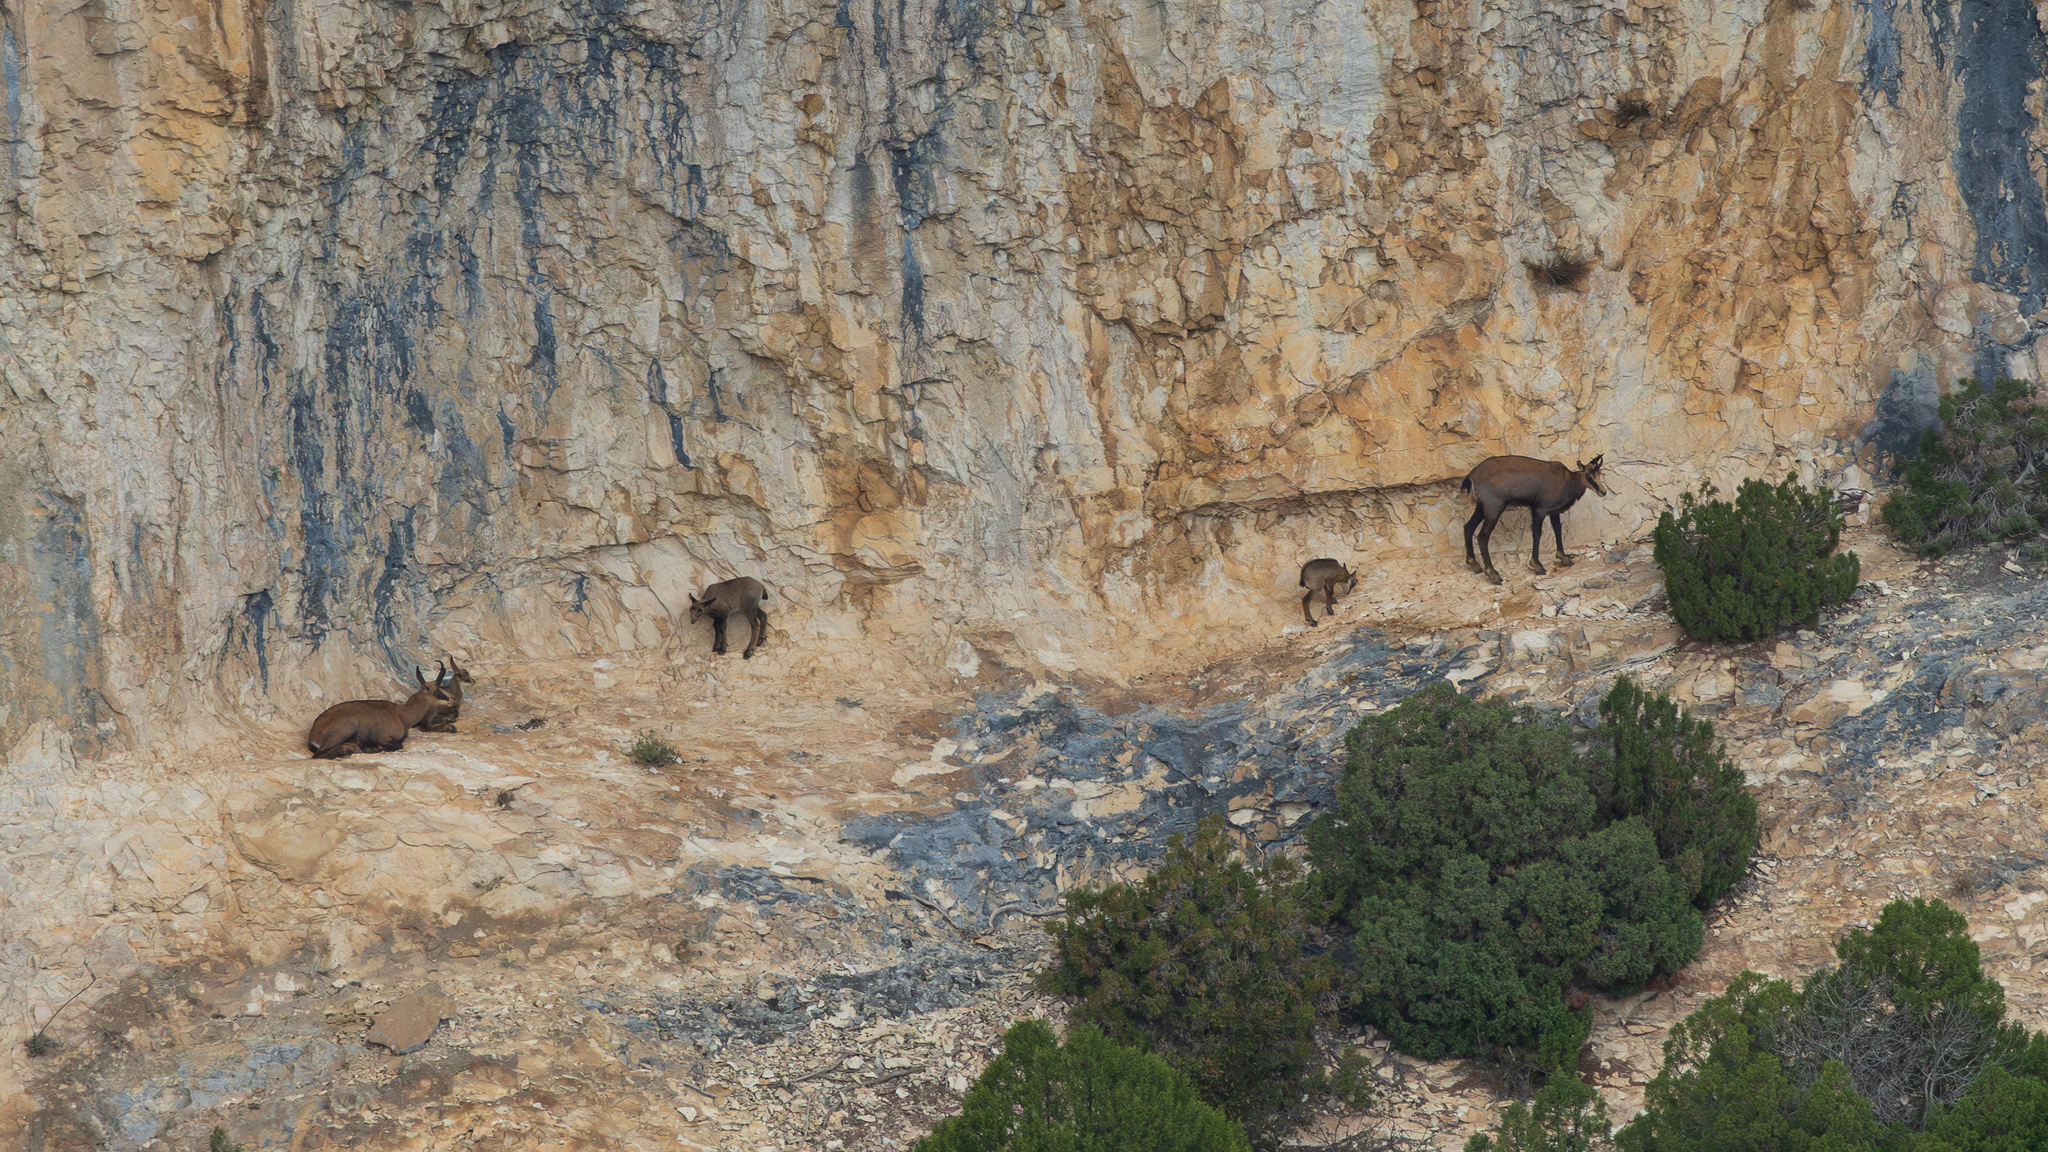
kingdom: Animalia
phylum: Chordata
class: Mammalia
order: Artiodactyla
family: Bovidae
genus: Rupicapra
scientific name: Rupicapra rupicapra
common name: Chamois
